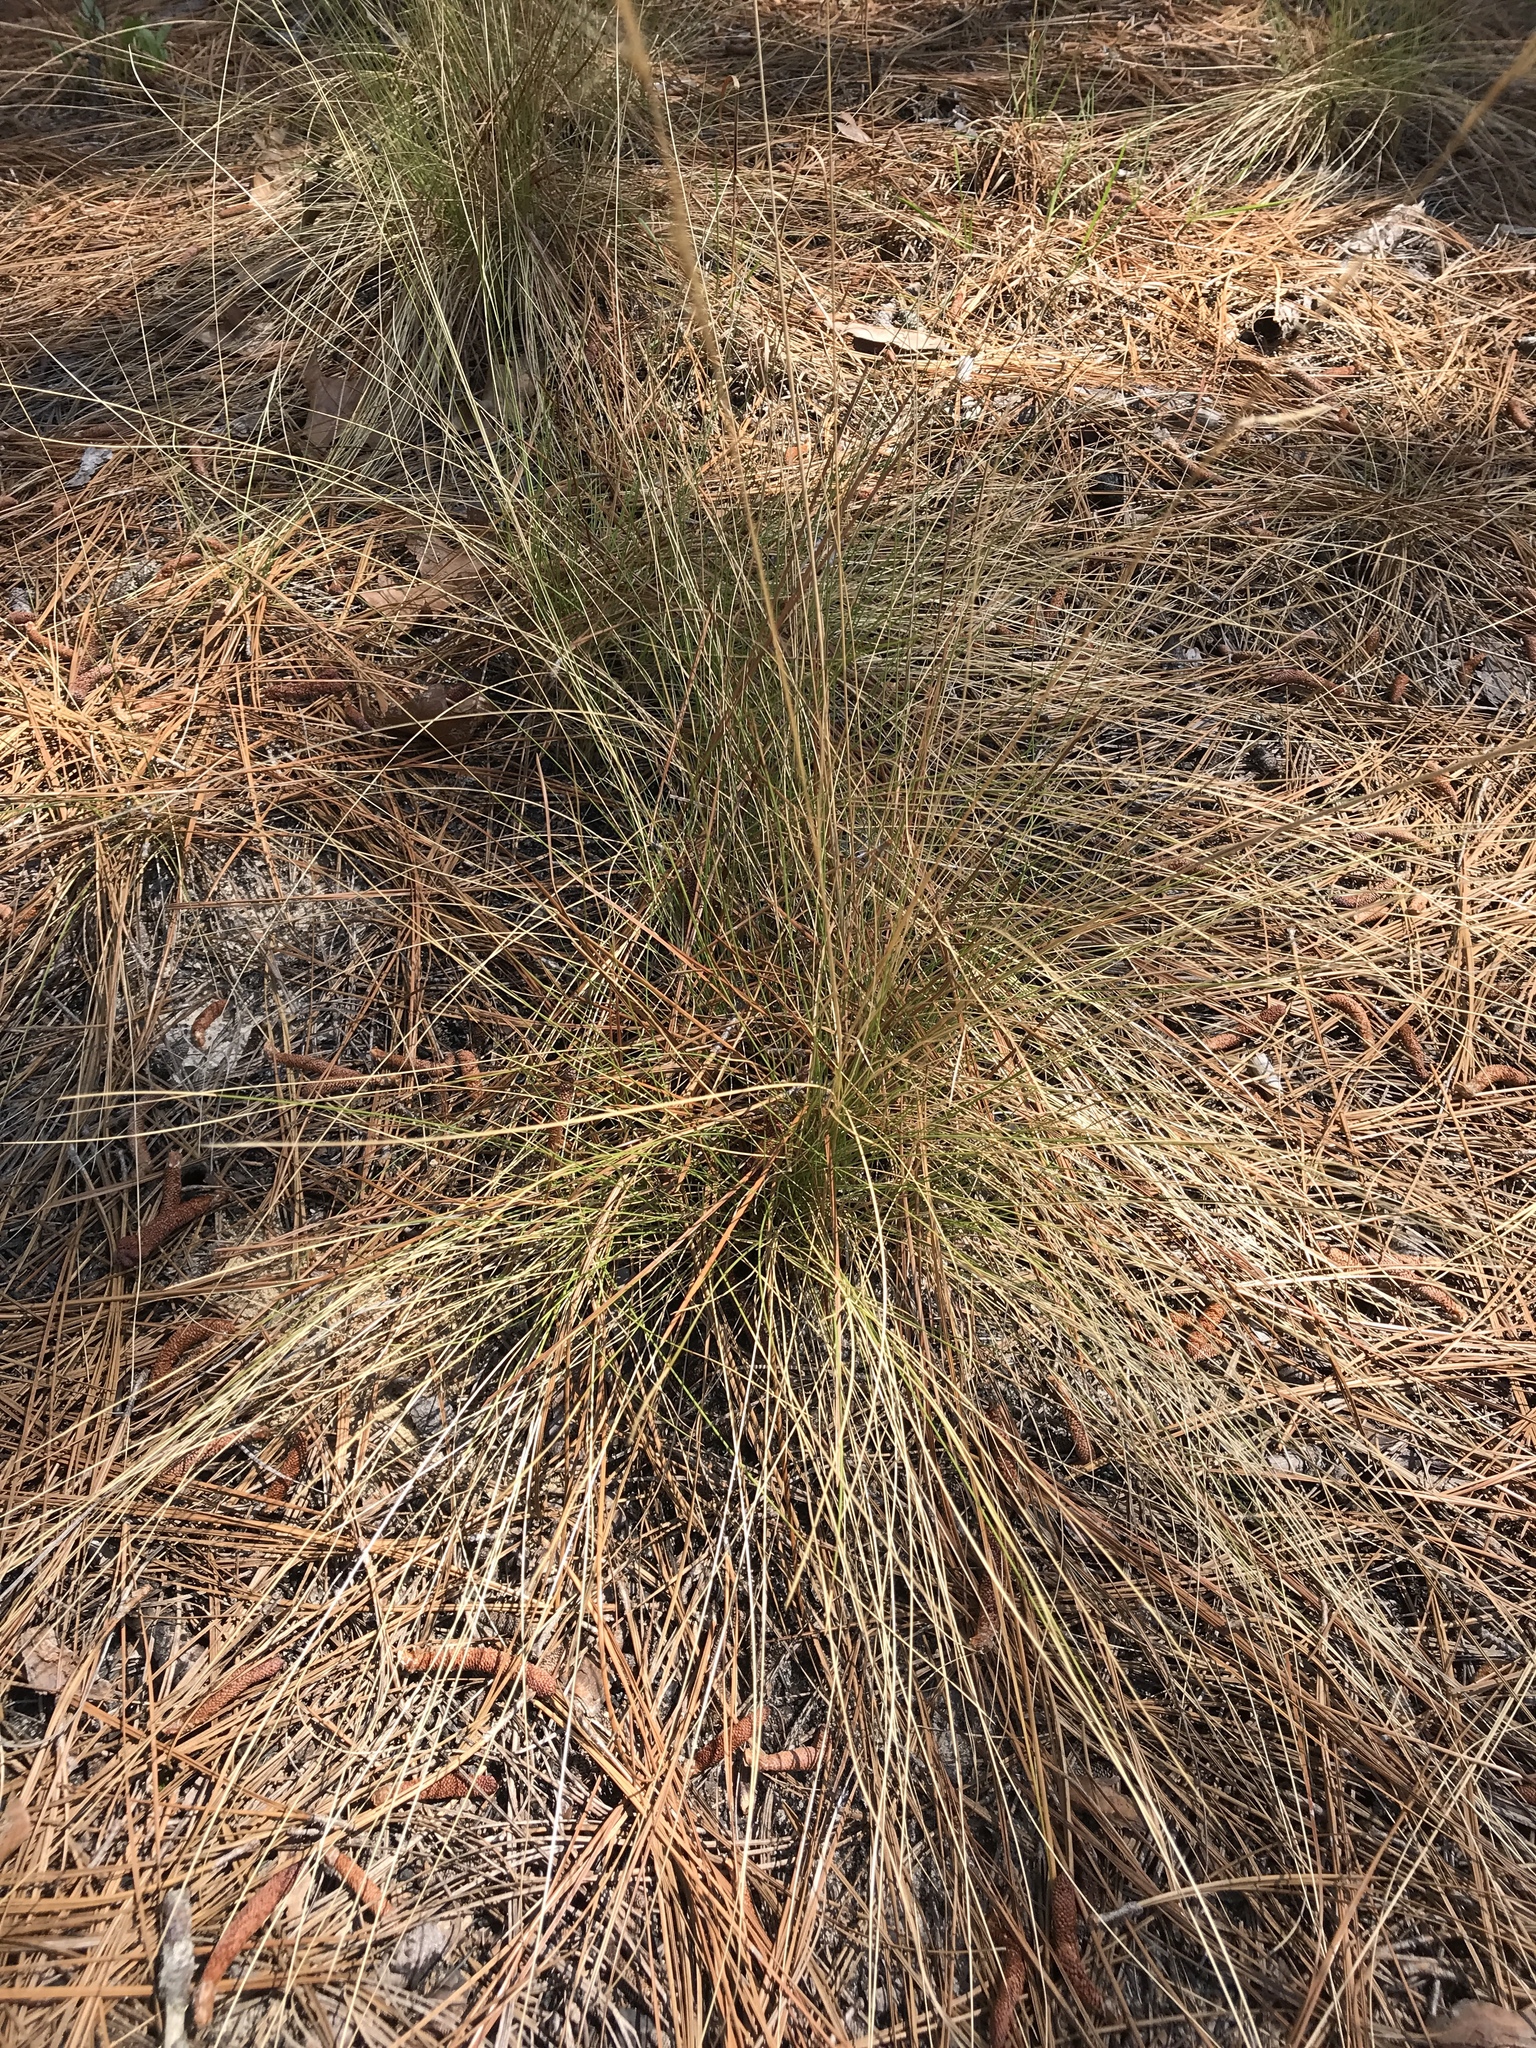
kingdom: Plantae
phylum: Tracheophyta
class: Liliopsida
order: Poales
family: Poaceae
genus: Aristida
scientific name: Aristida stricta
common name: Pineland three-awn
